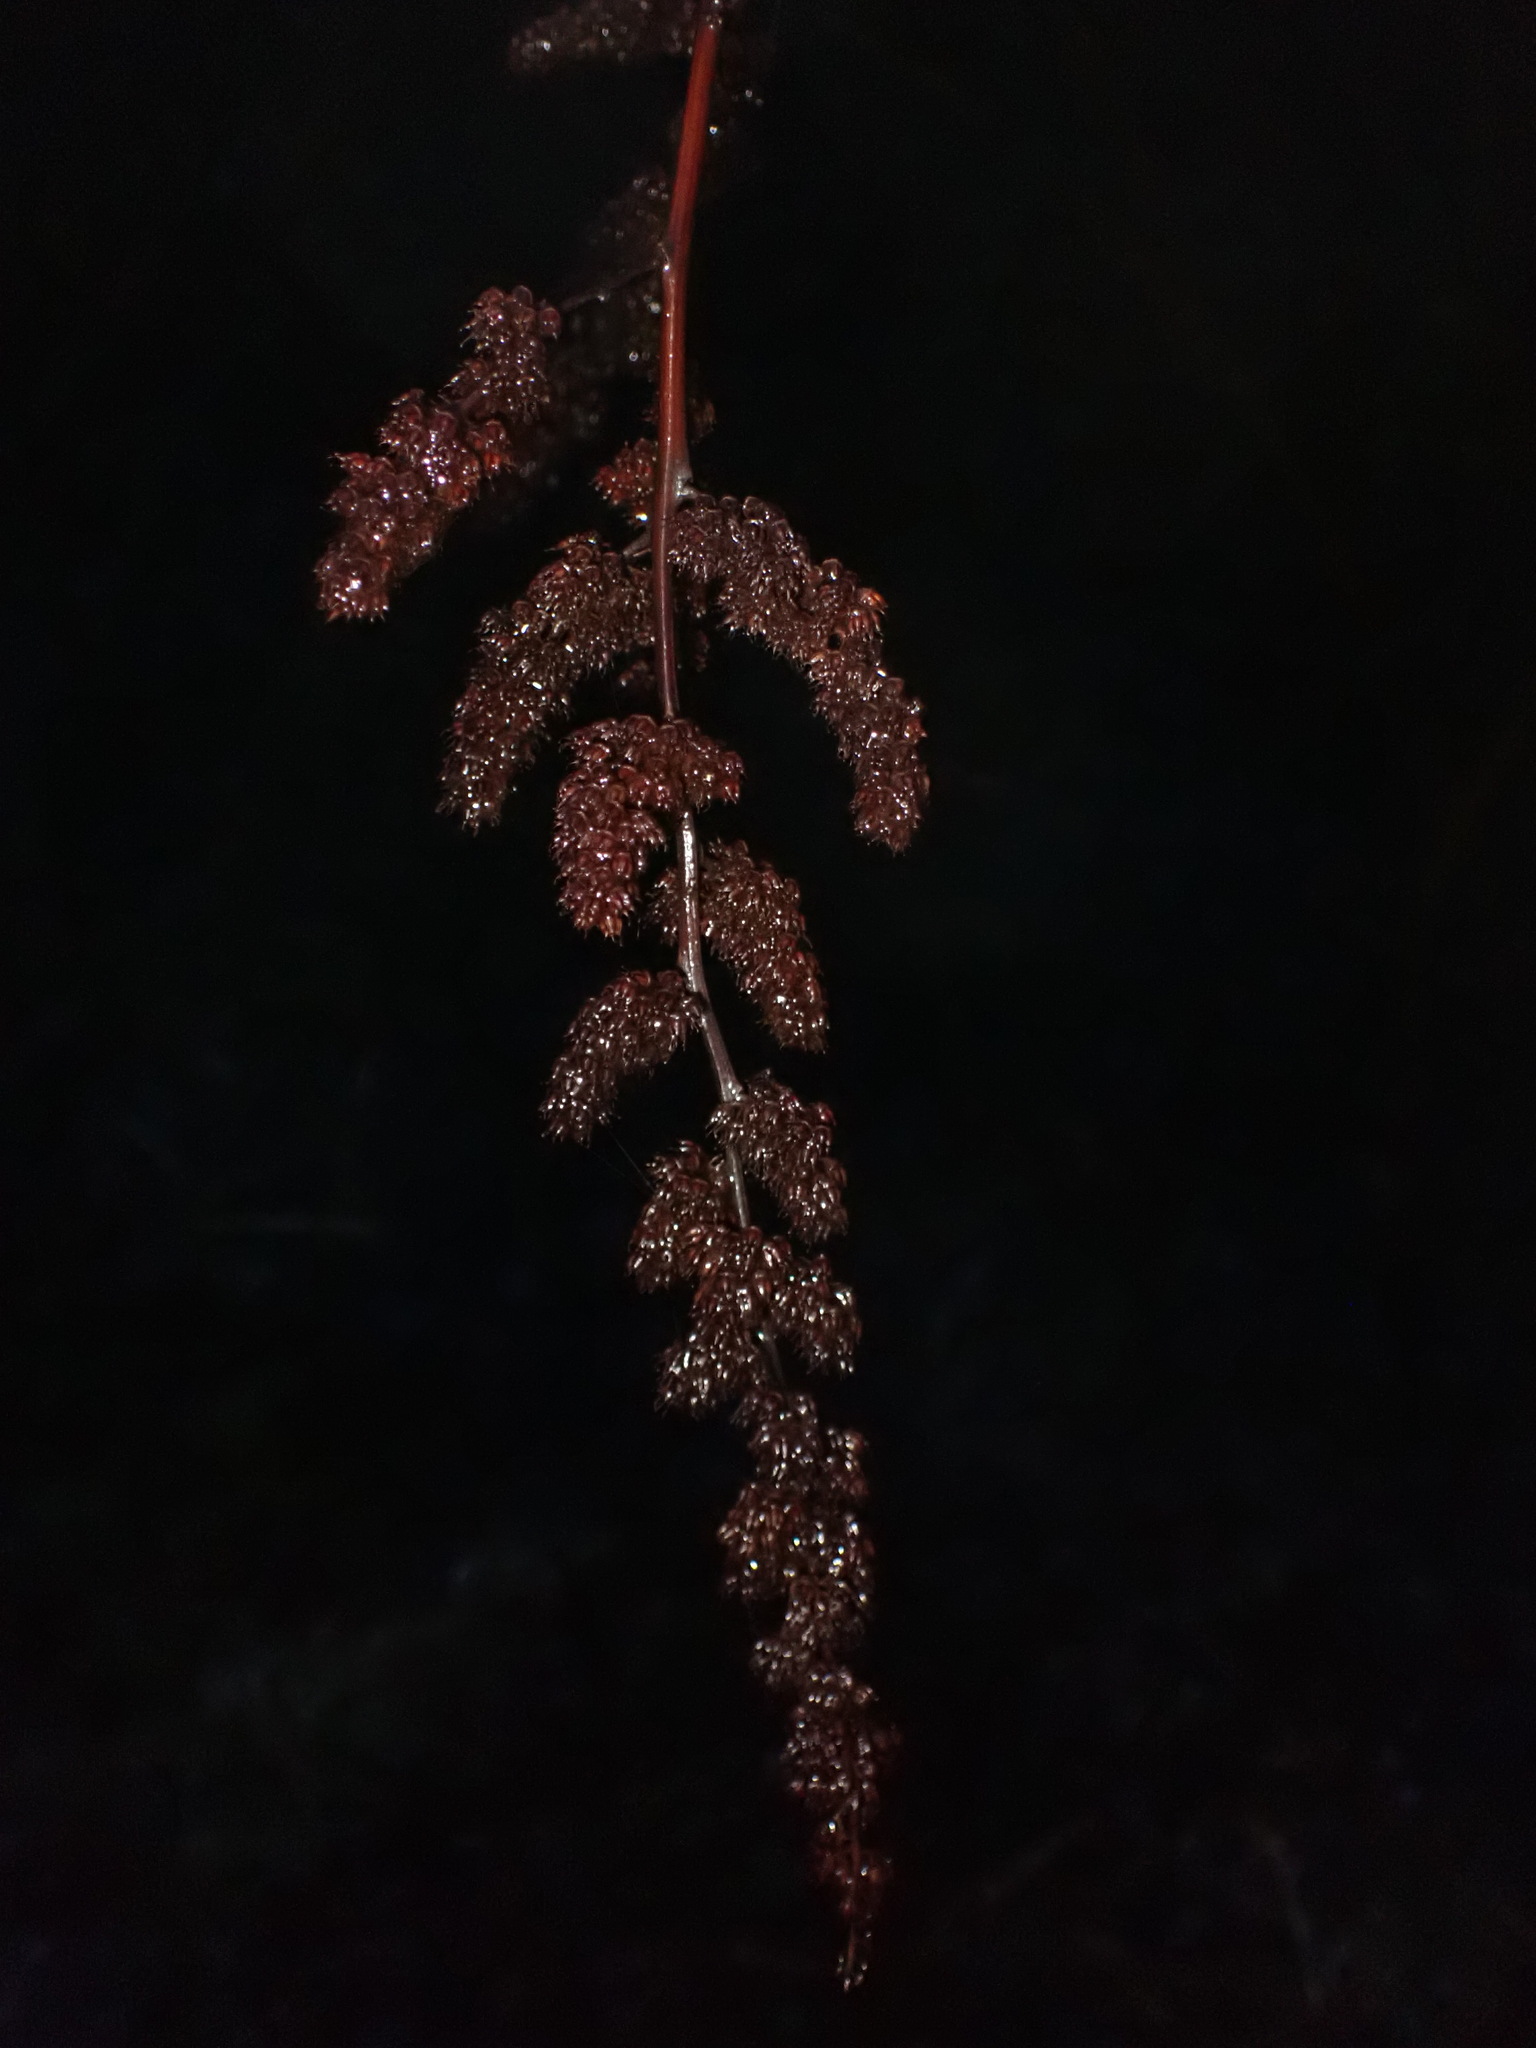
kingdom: Plantae
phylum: Tracheophyta
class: Magnoliopsida
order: Rosales
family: Rosaceae
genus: Spiraea
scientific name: Spiraea douglasii
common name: Steeplebush
